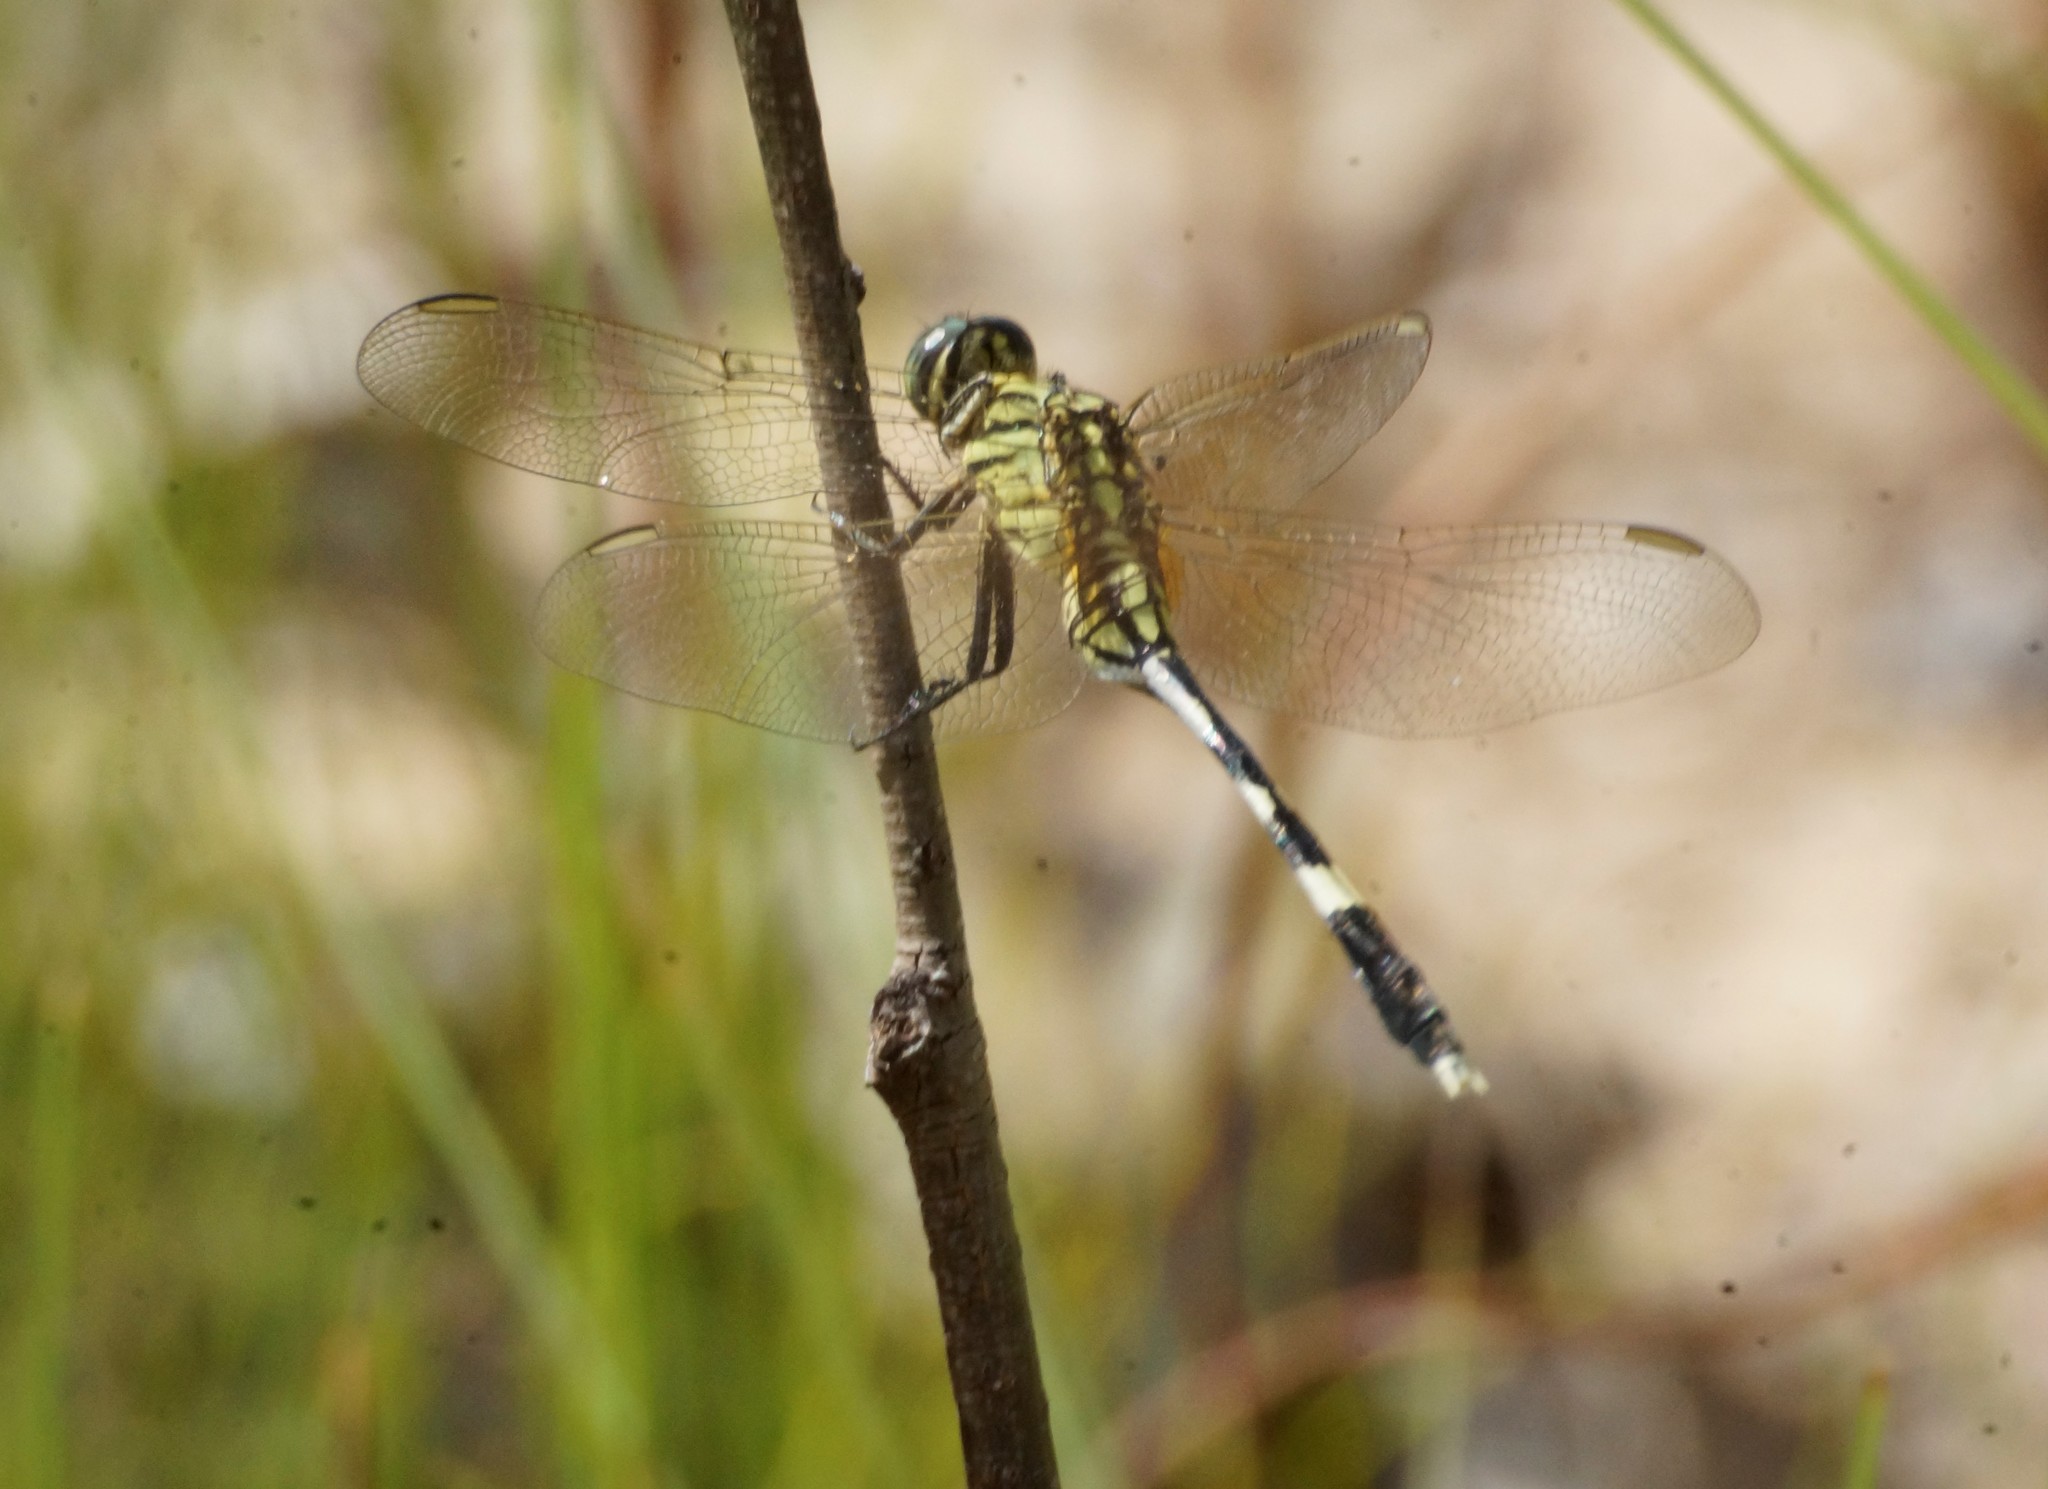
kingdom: Animalia
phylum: Arthropoda
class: Insecta
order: Odonata
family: Libellulidae
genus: Orthetrum
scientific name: Orthetrum sabina
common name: Slender skimmer
